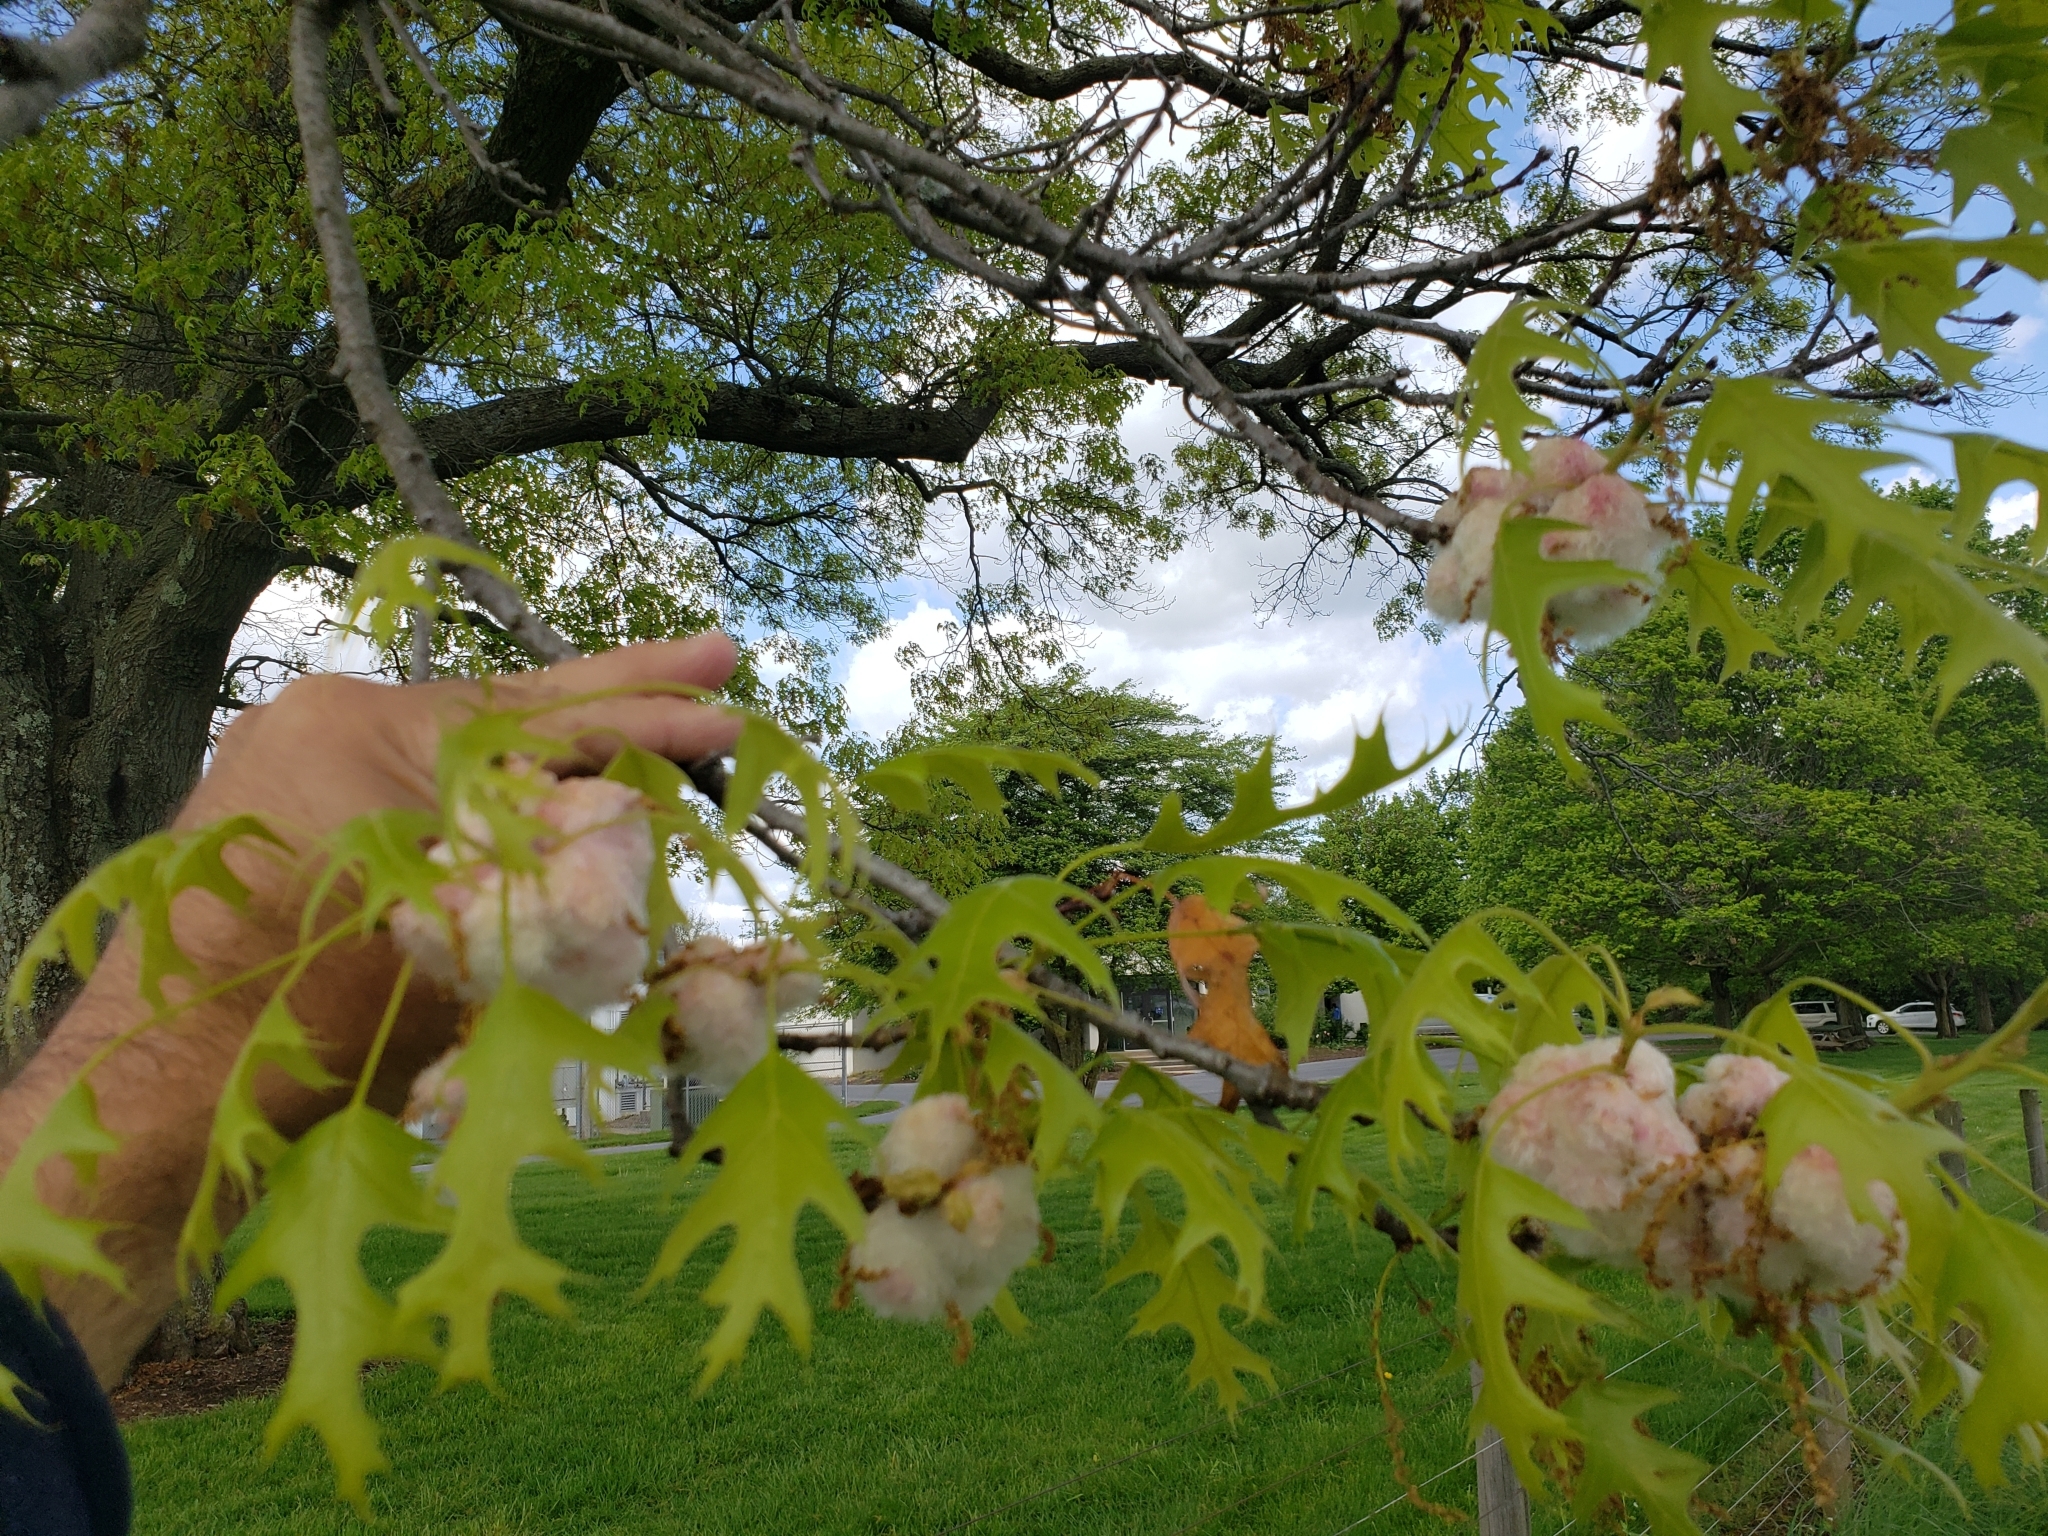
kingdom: Animalia
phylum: Arthropoda
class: Insecta
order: Hymenoptera
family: Cynipidae
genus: Callirhytis
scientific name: Callirhytis
